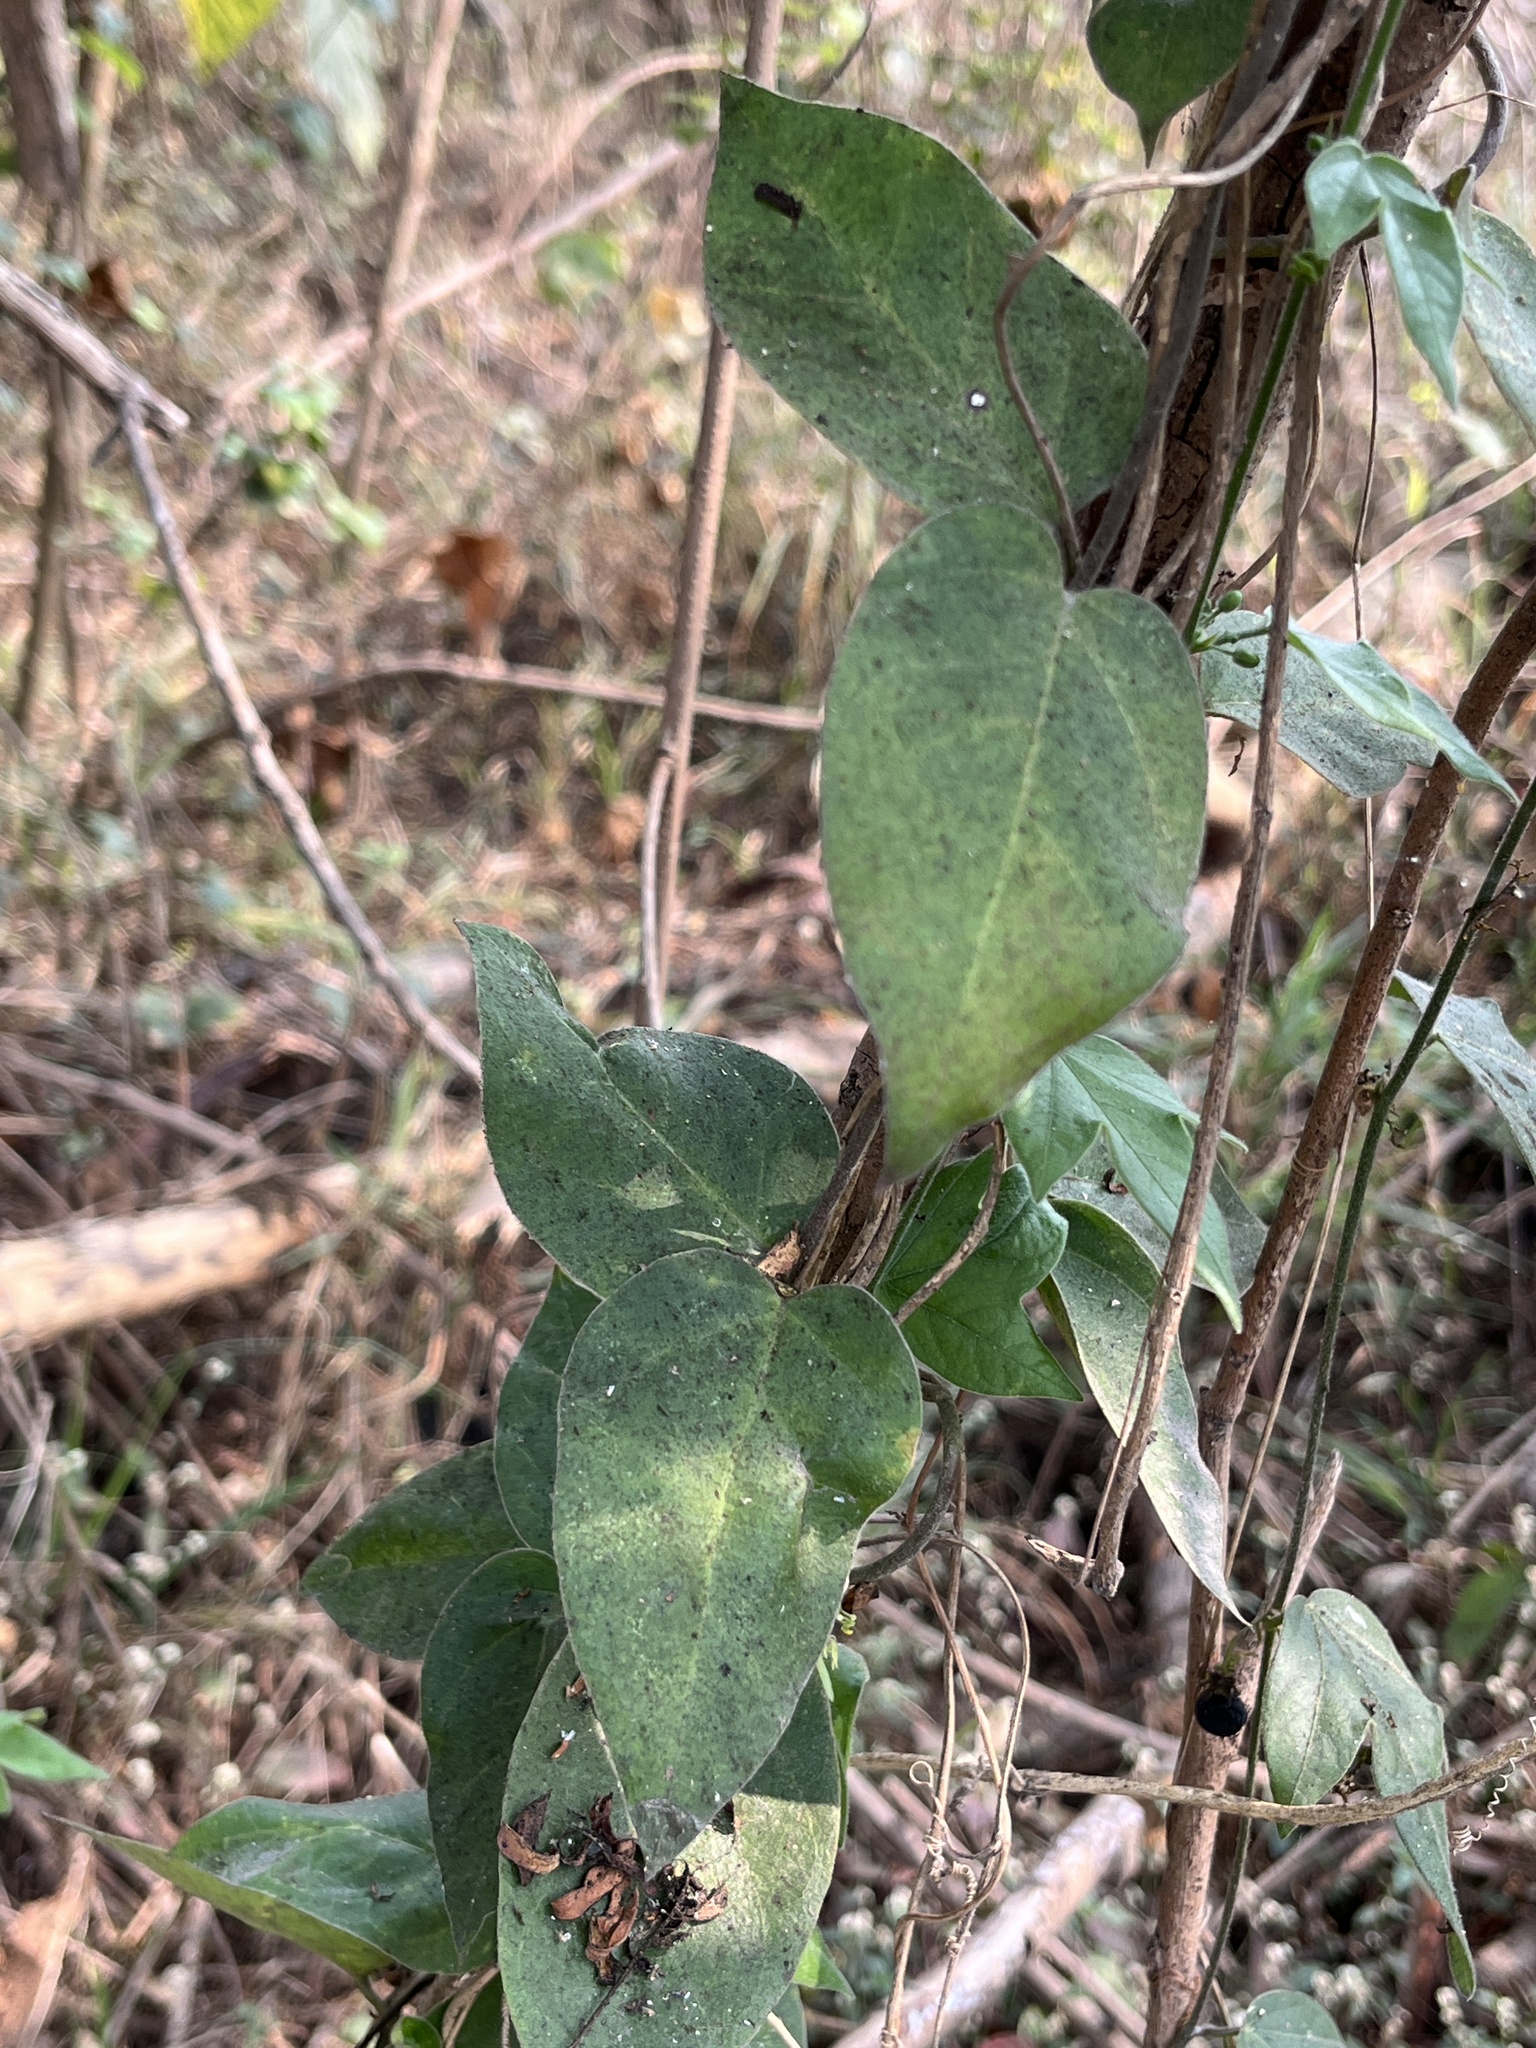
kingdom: Plantae
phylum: Tracheophyta
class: Magnoliopsida
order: Gentianales
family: Apocynaceae
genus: Vincetoxicum
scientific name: Vincetoxicum hirsutum
